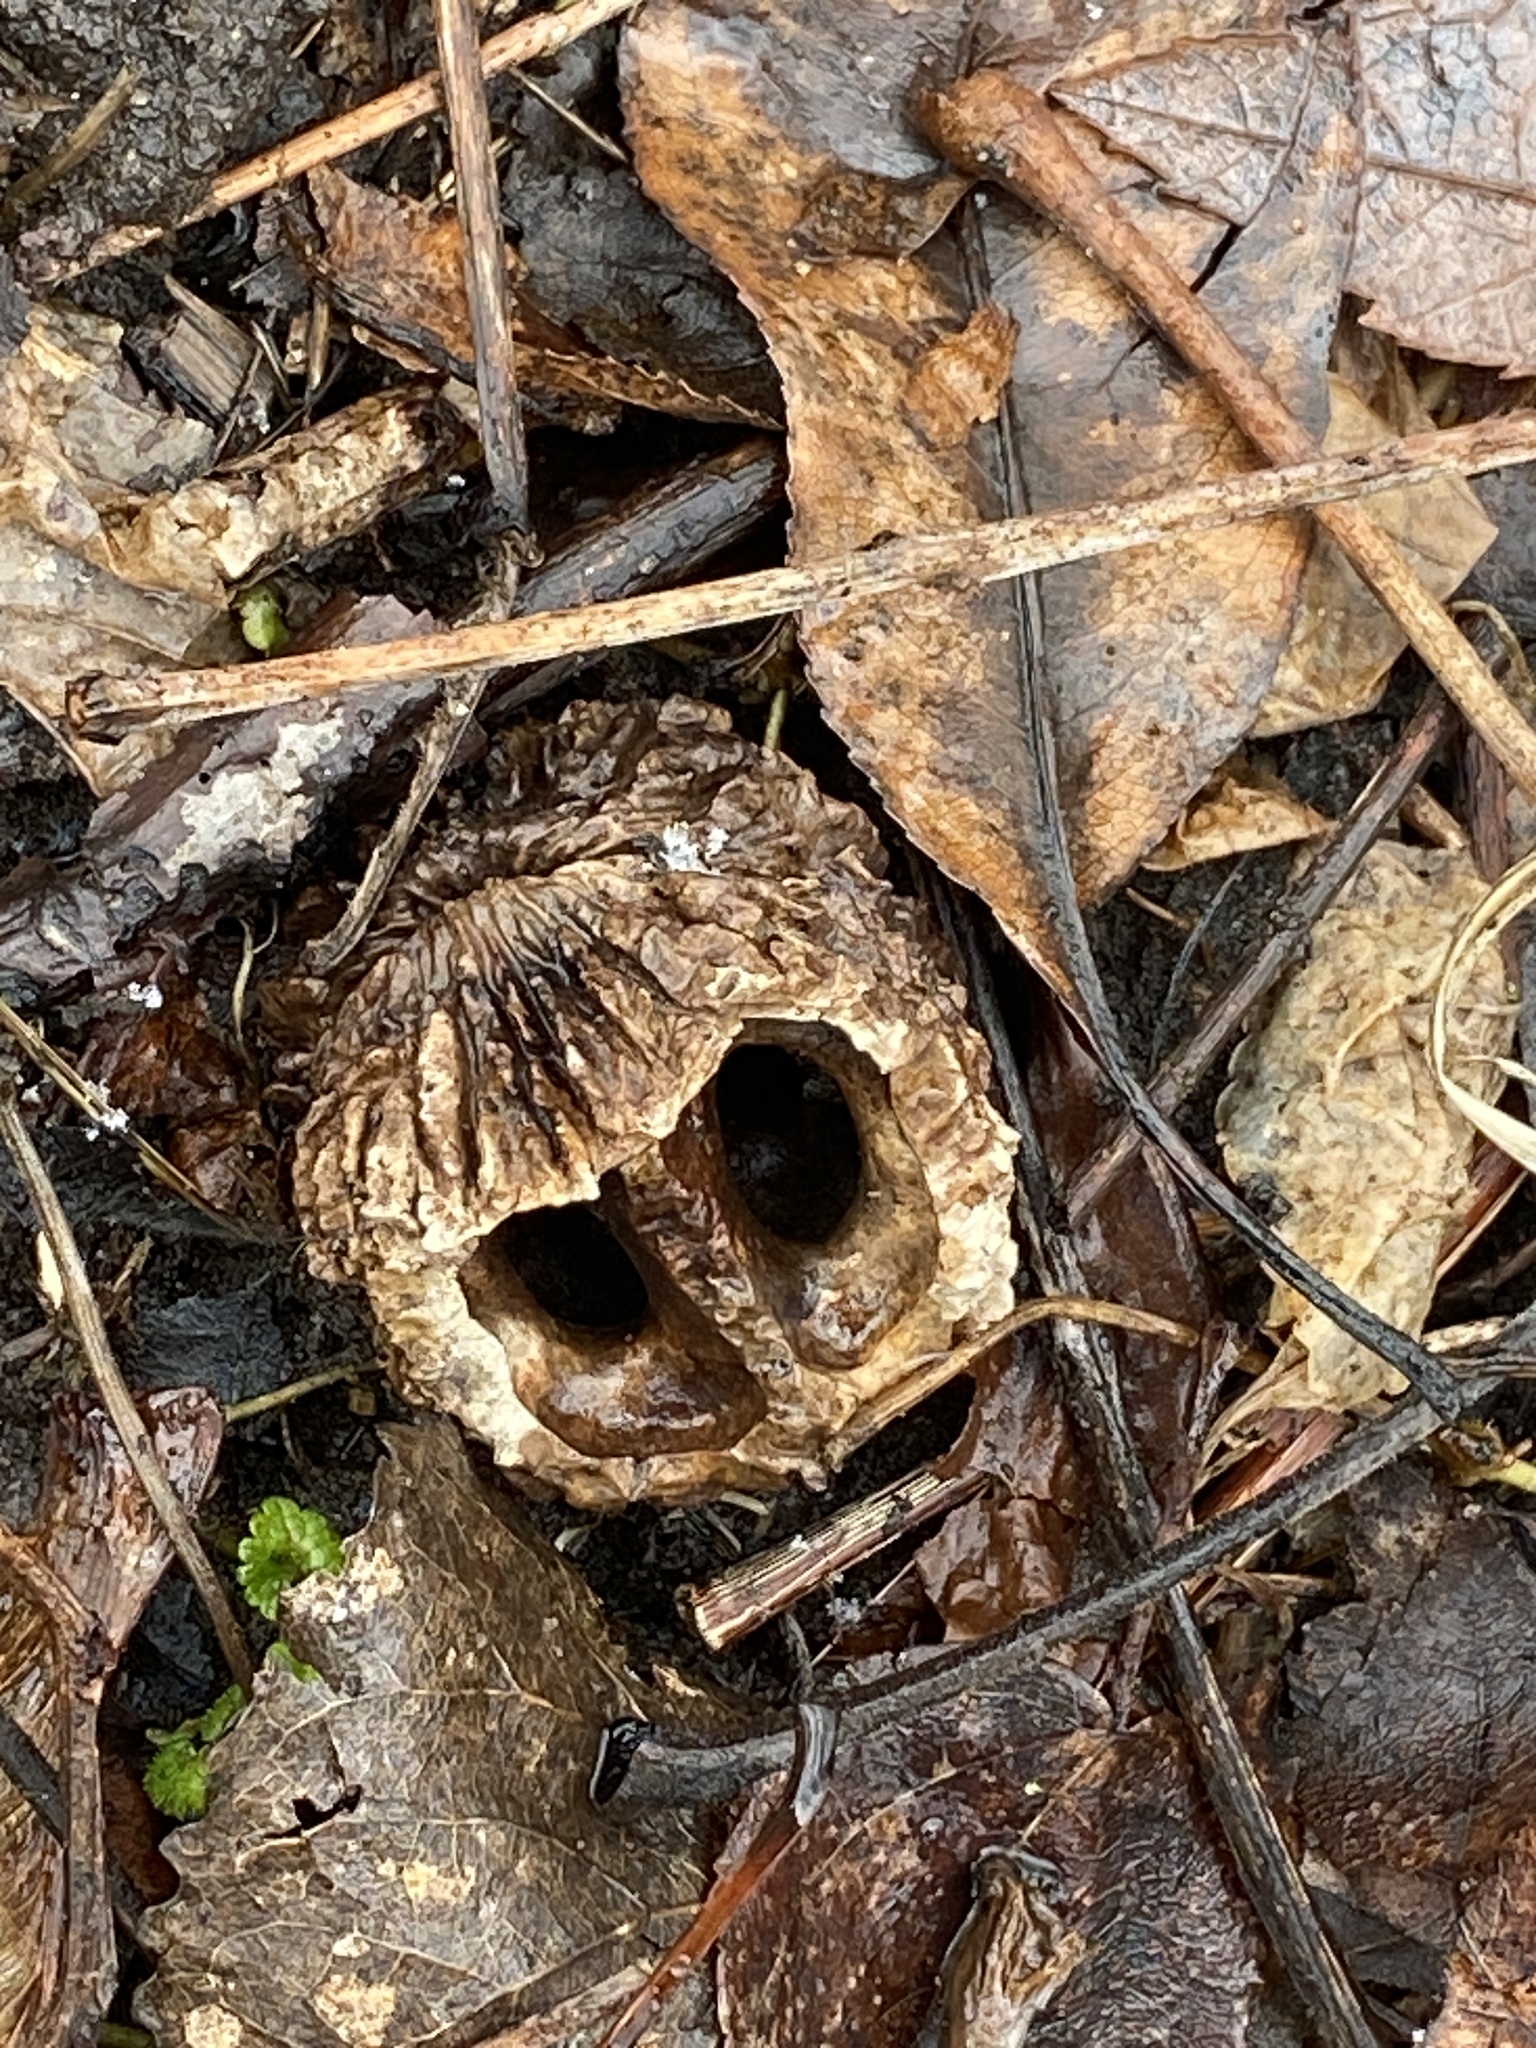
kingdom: Plantae
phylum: Tracheophyta
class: Magnoliopsida
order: Fagales
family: Juglandaceae
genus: Juglans
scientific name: Juglans nigra
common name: Black walnut
